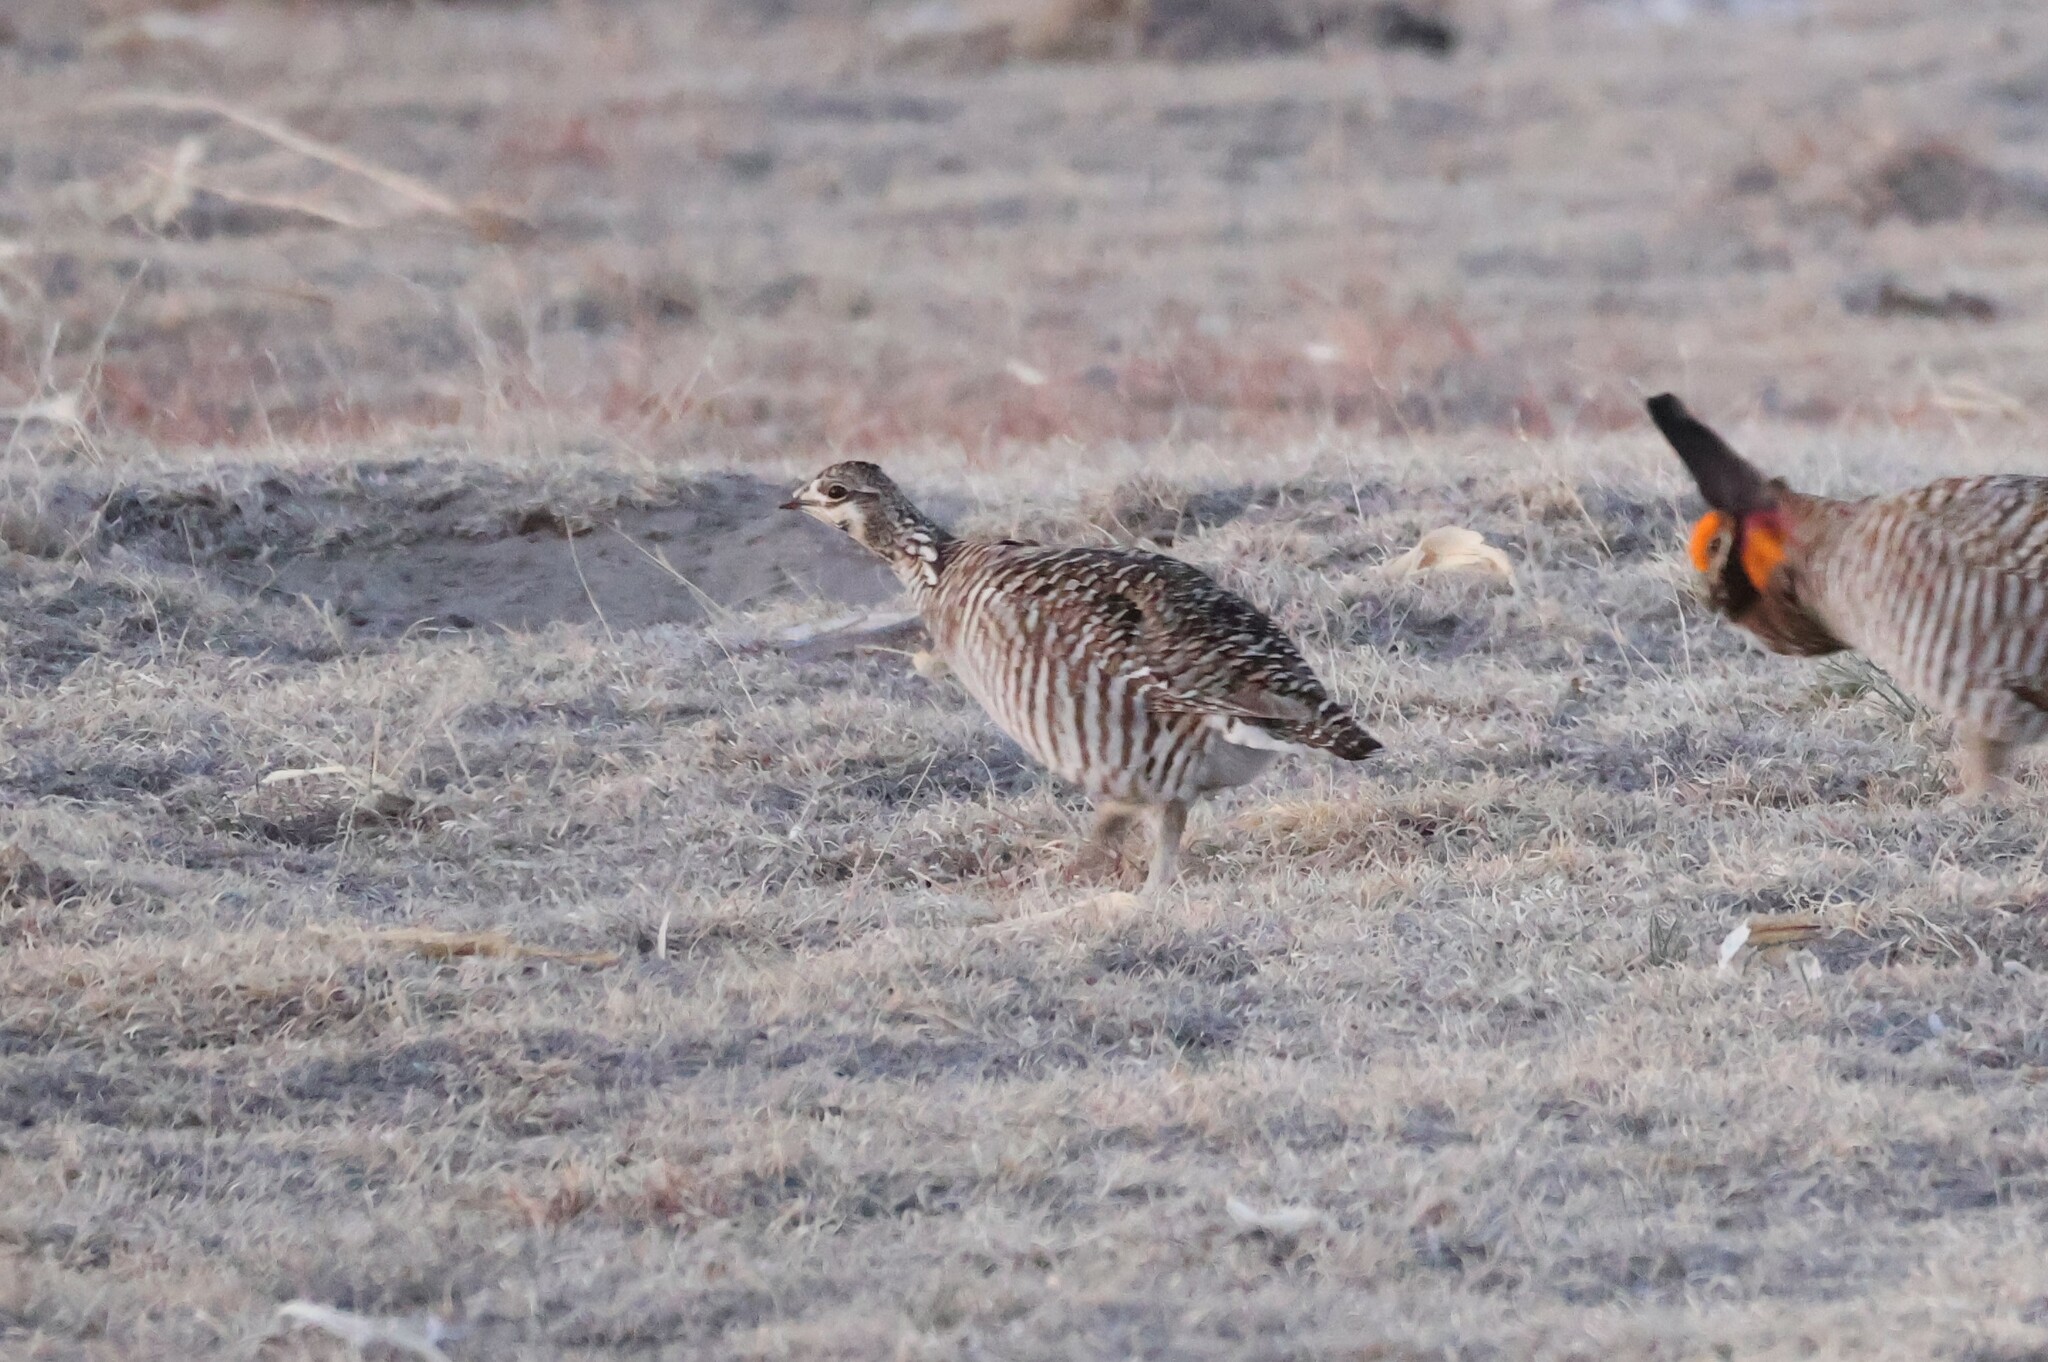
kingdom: Animalia
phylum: Chordata
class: Aves
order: Galliformes
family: Phasianidae
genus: Tympanuchus
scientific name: Tympanuchus cupido
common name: Greater prairie chicken
